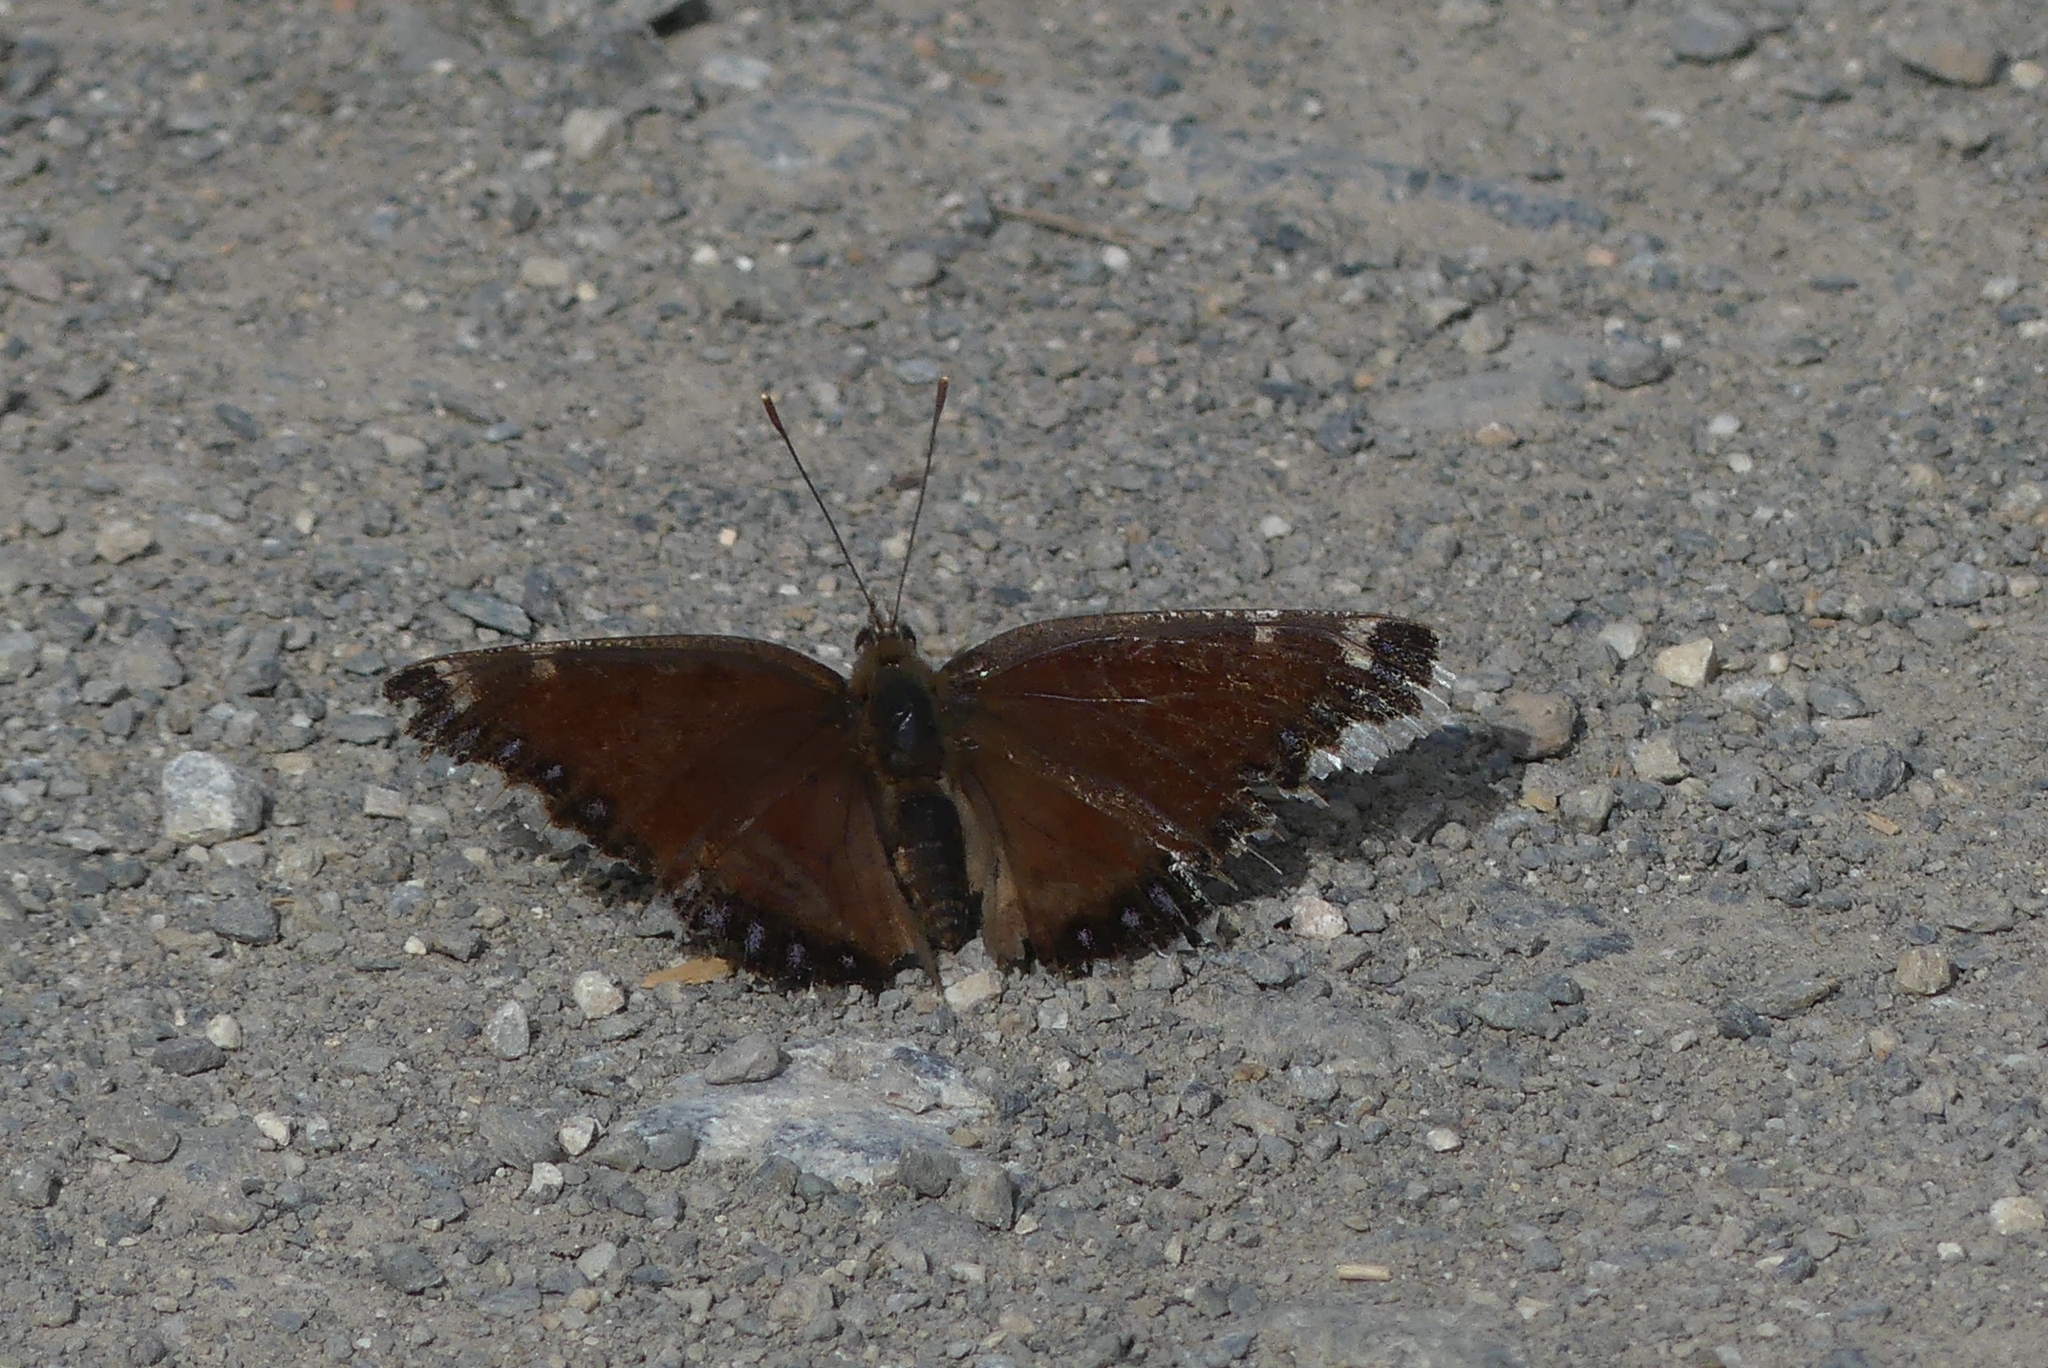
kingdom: Animalia
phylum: Arthropoda
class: Insecta
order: Lepidoptera
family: Nymphalidae
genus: Nymphalis
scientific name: Nymphalis antiopa
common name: Camberwell beauty
